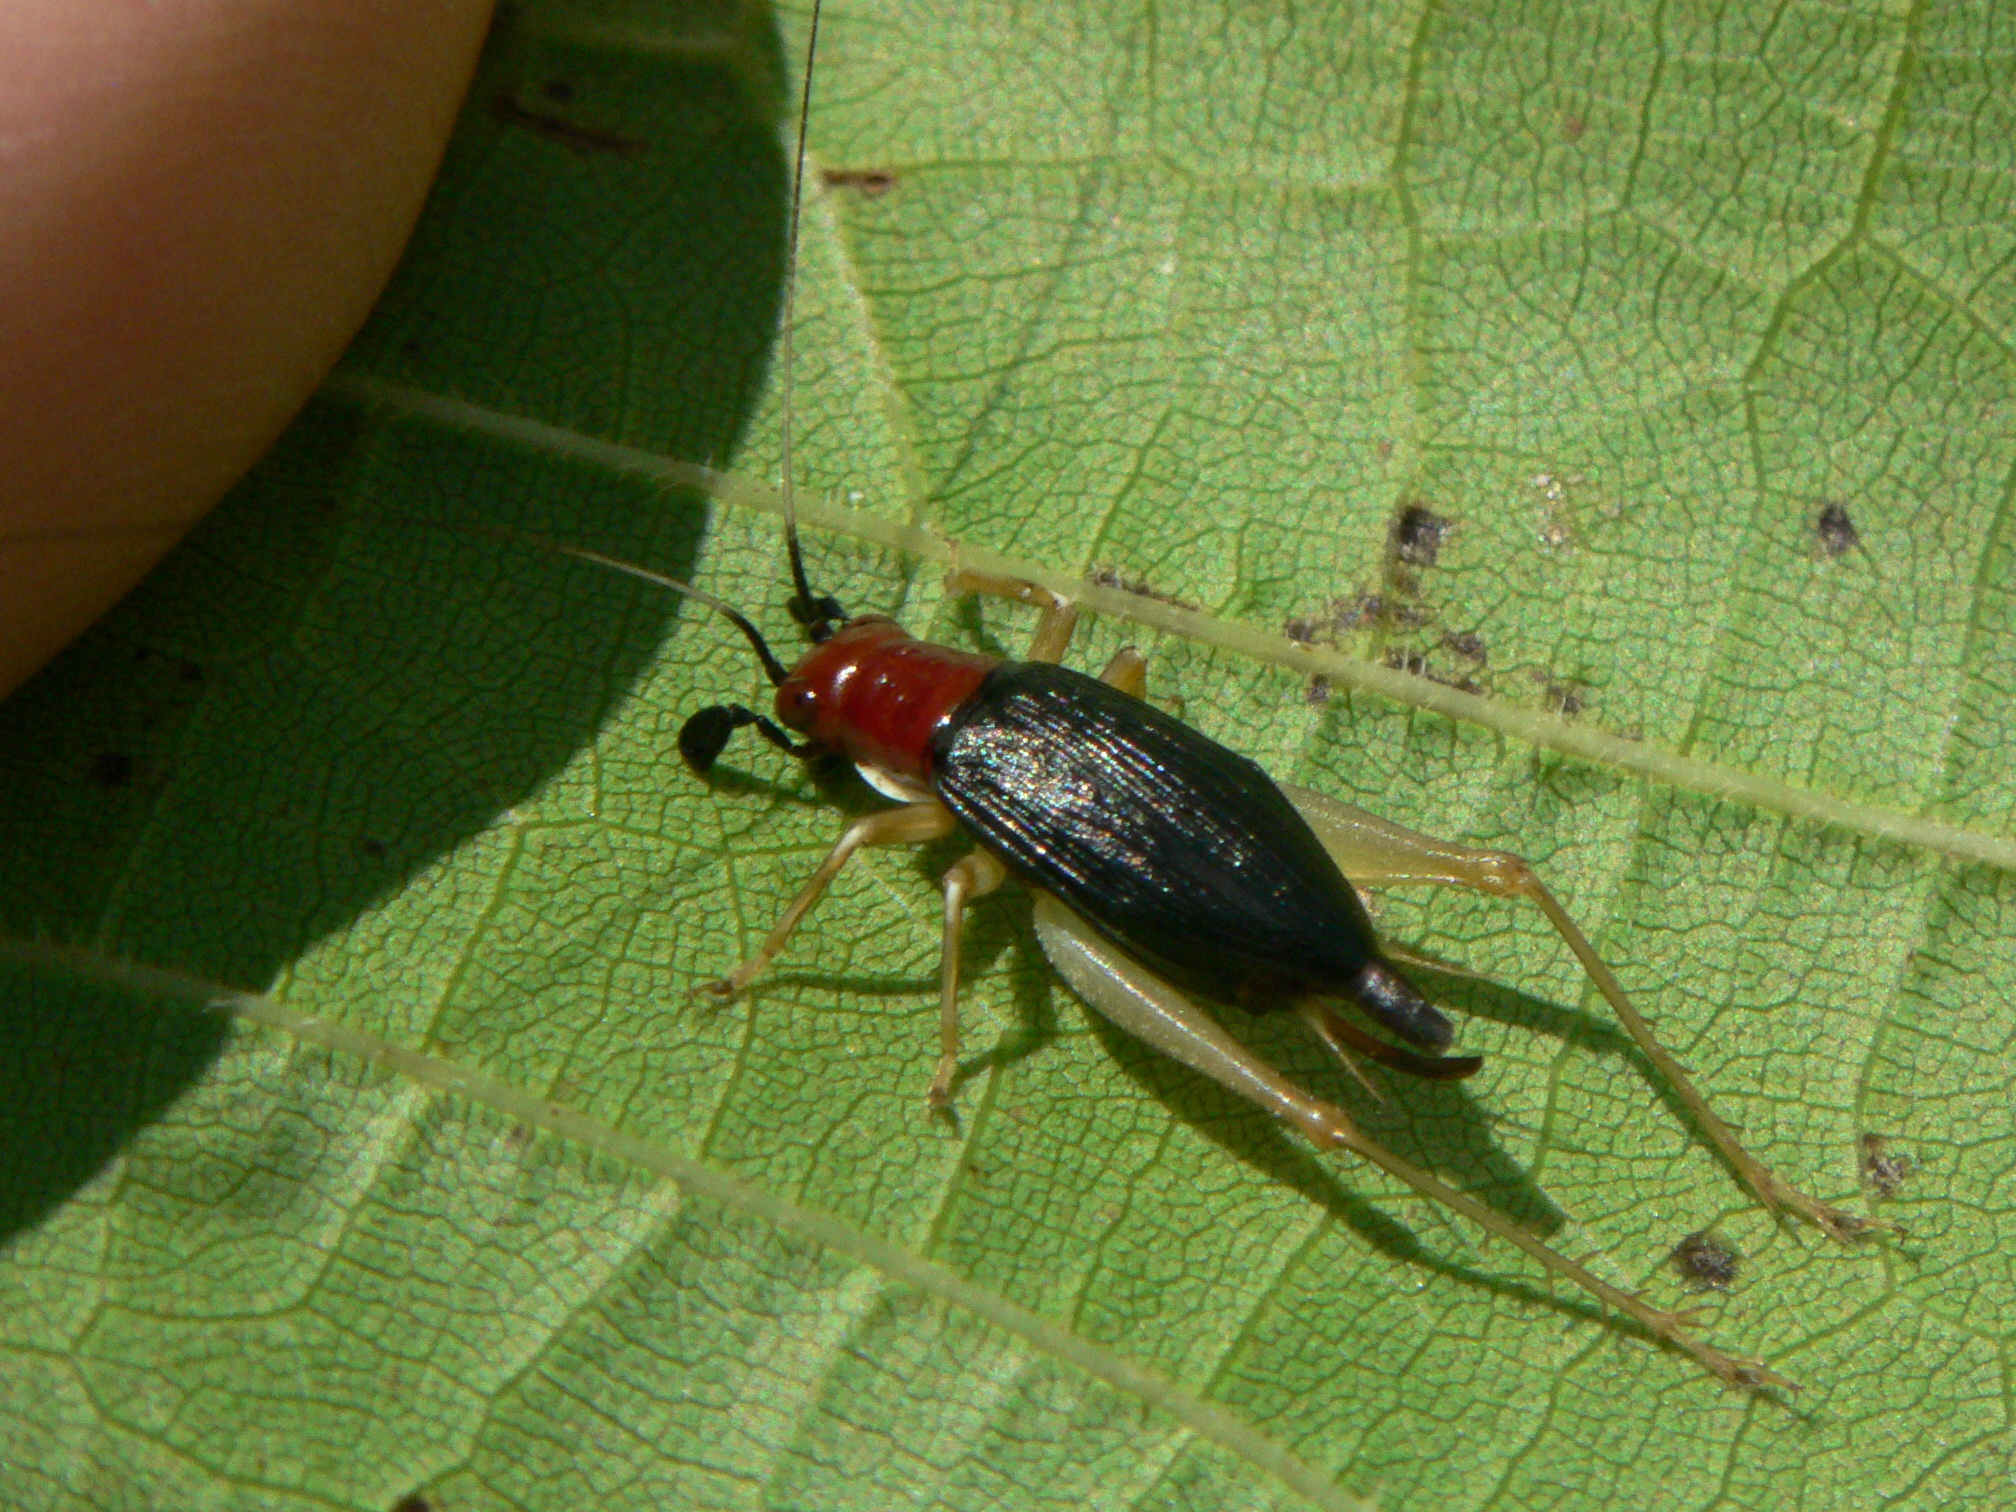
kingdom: Animalia
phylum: Arthropoda
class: Insecta
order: Orthoptera
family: Trigonidiidae
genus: Phyllopalpus
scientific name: Phyllopalpus pulchellus
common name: Handsome trig
